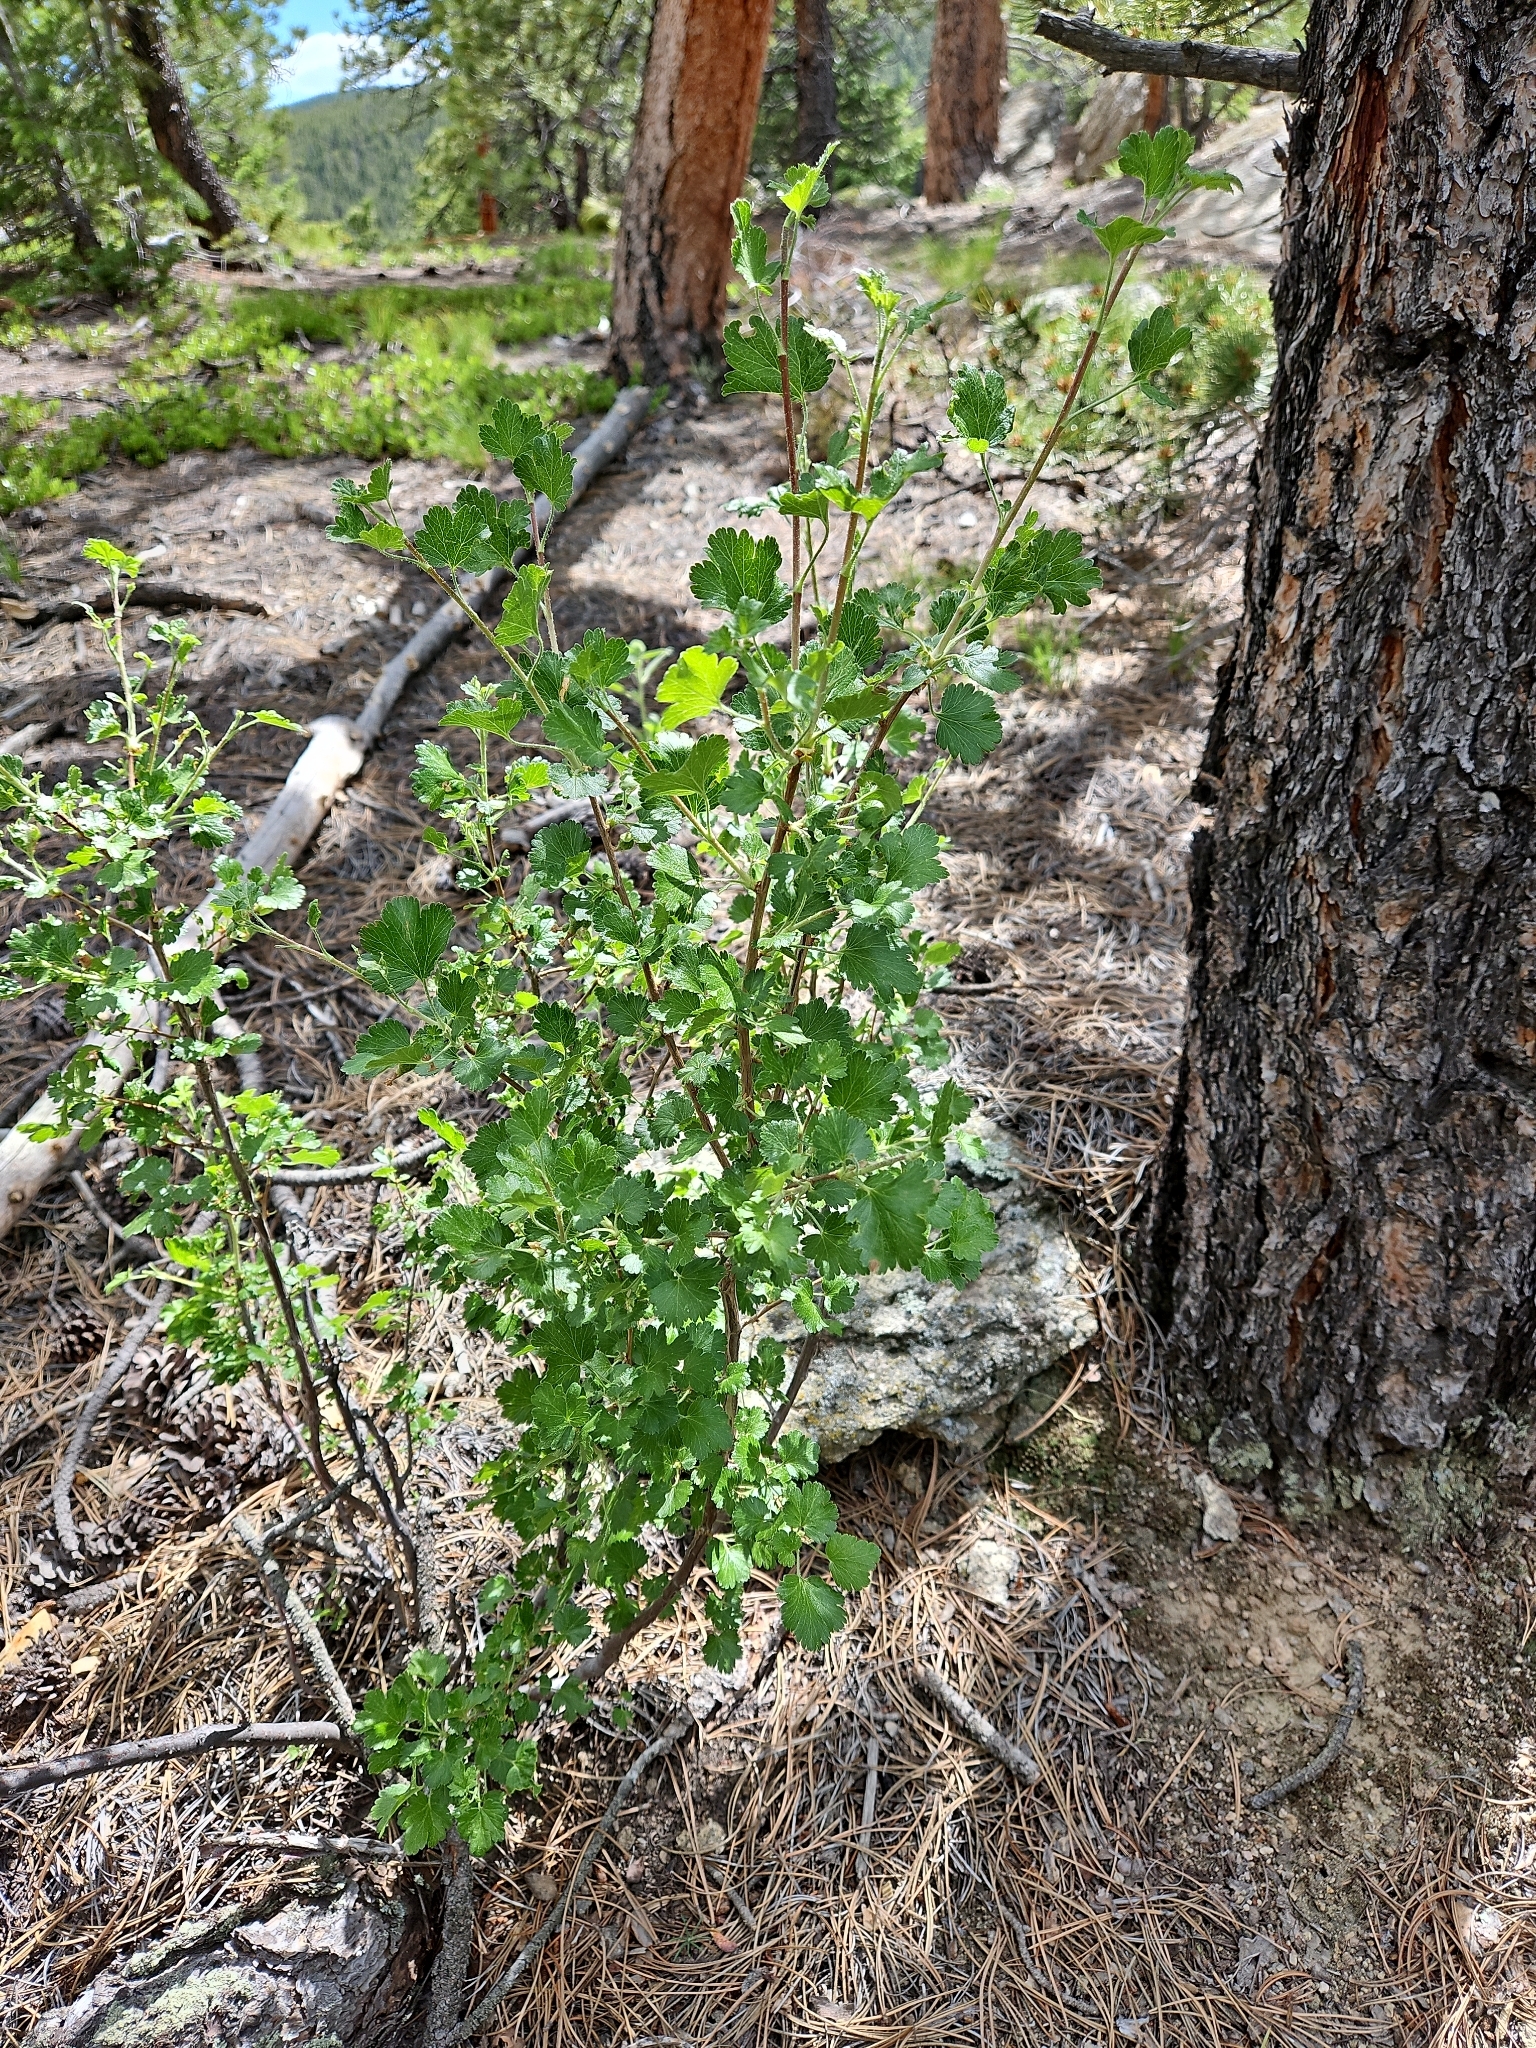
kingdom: Plantae
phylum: Tracheophyta
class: Magnoliopsida
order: Saxifragales
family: Grossulariaceae
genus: Ribes
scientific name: Ribes cereum
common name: Wax currant
